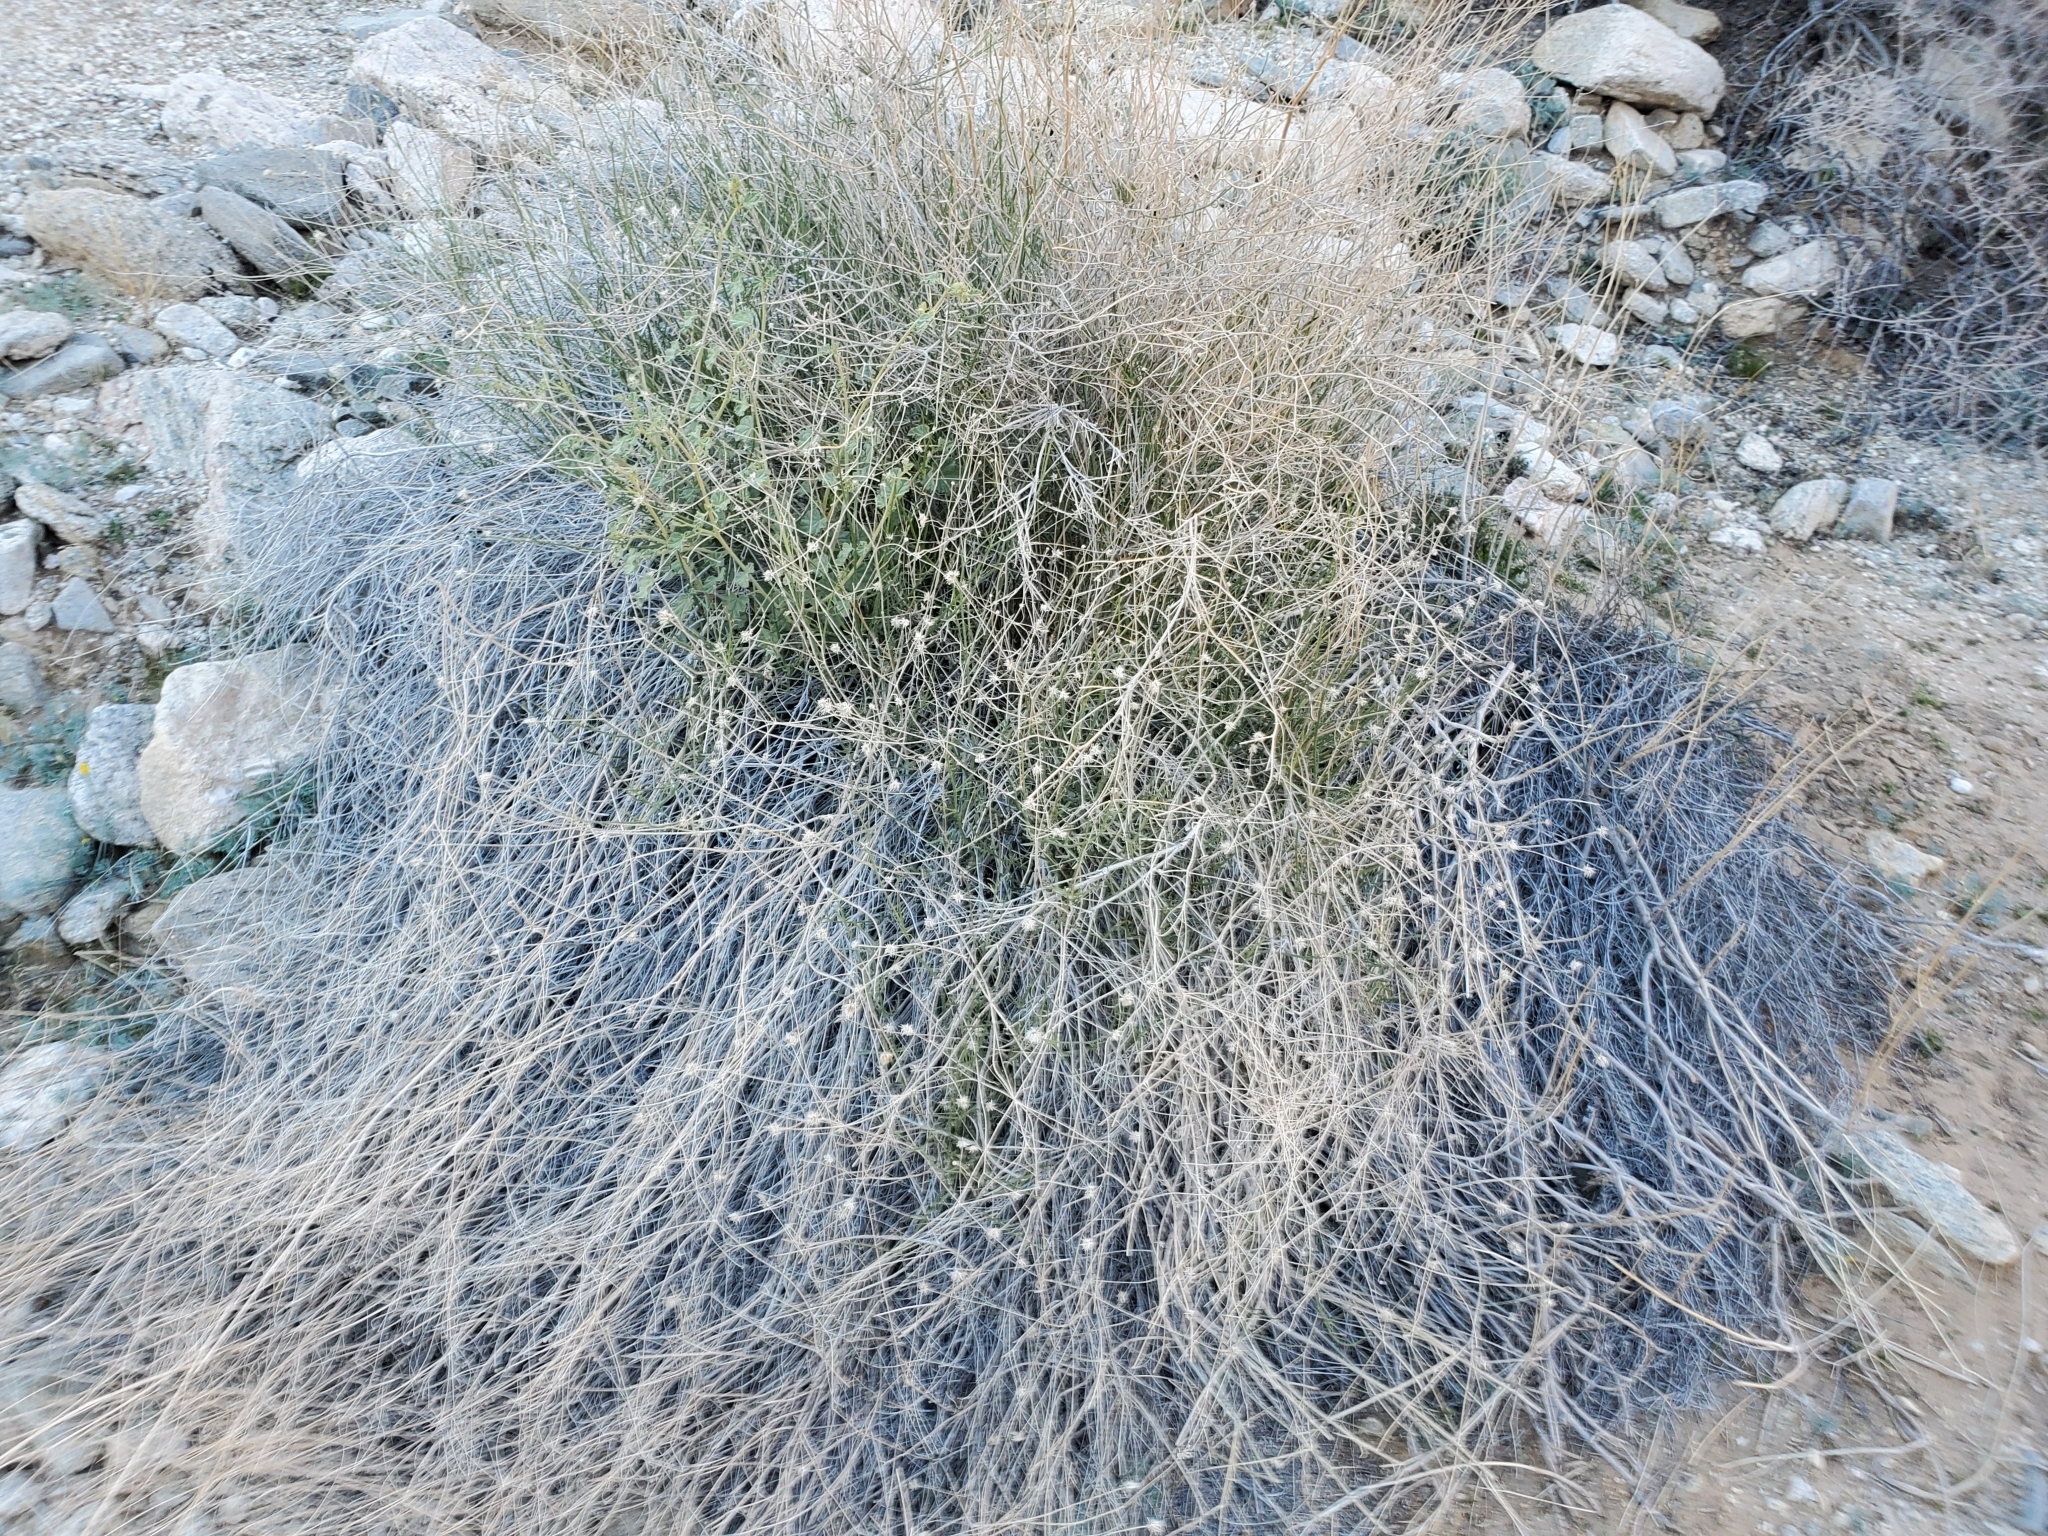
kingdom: Plantae
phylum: Tracheophyta
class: Magnoliopsida
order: Asterales
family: Asteraceae
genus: Bebbia
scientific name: Bebbia juncea
